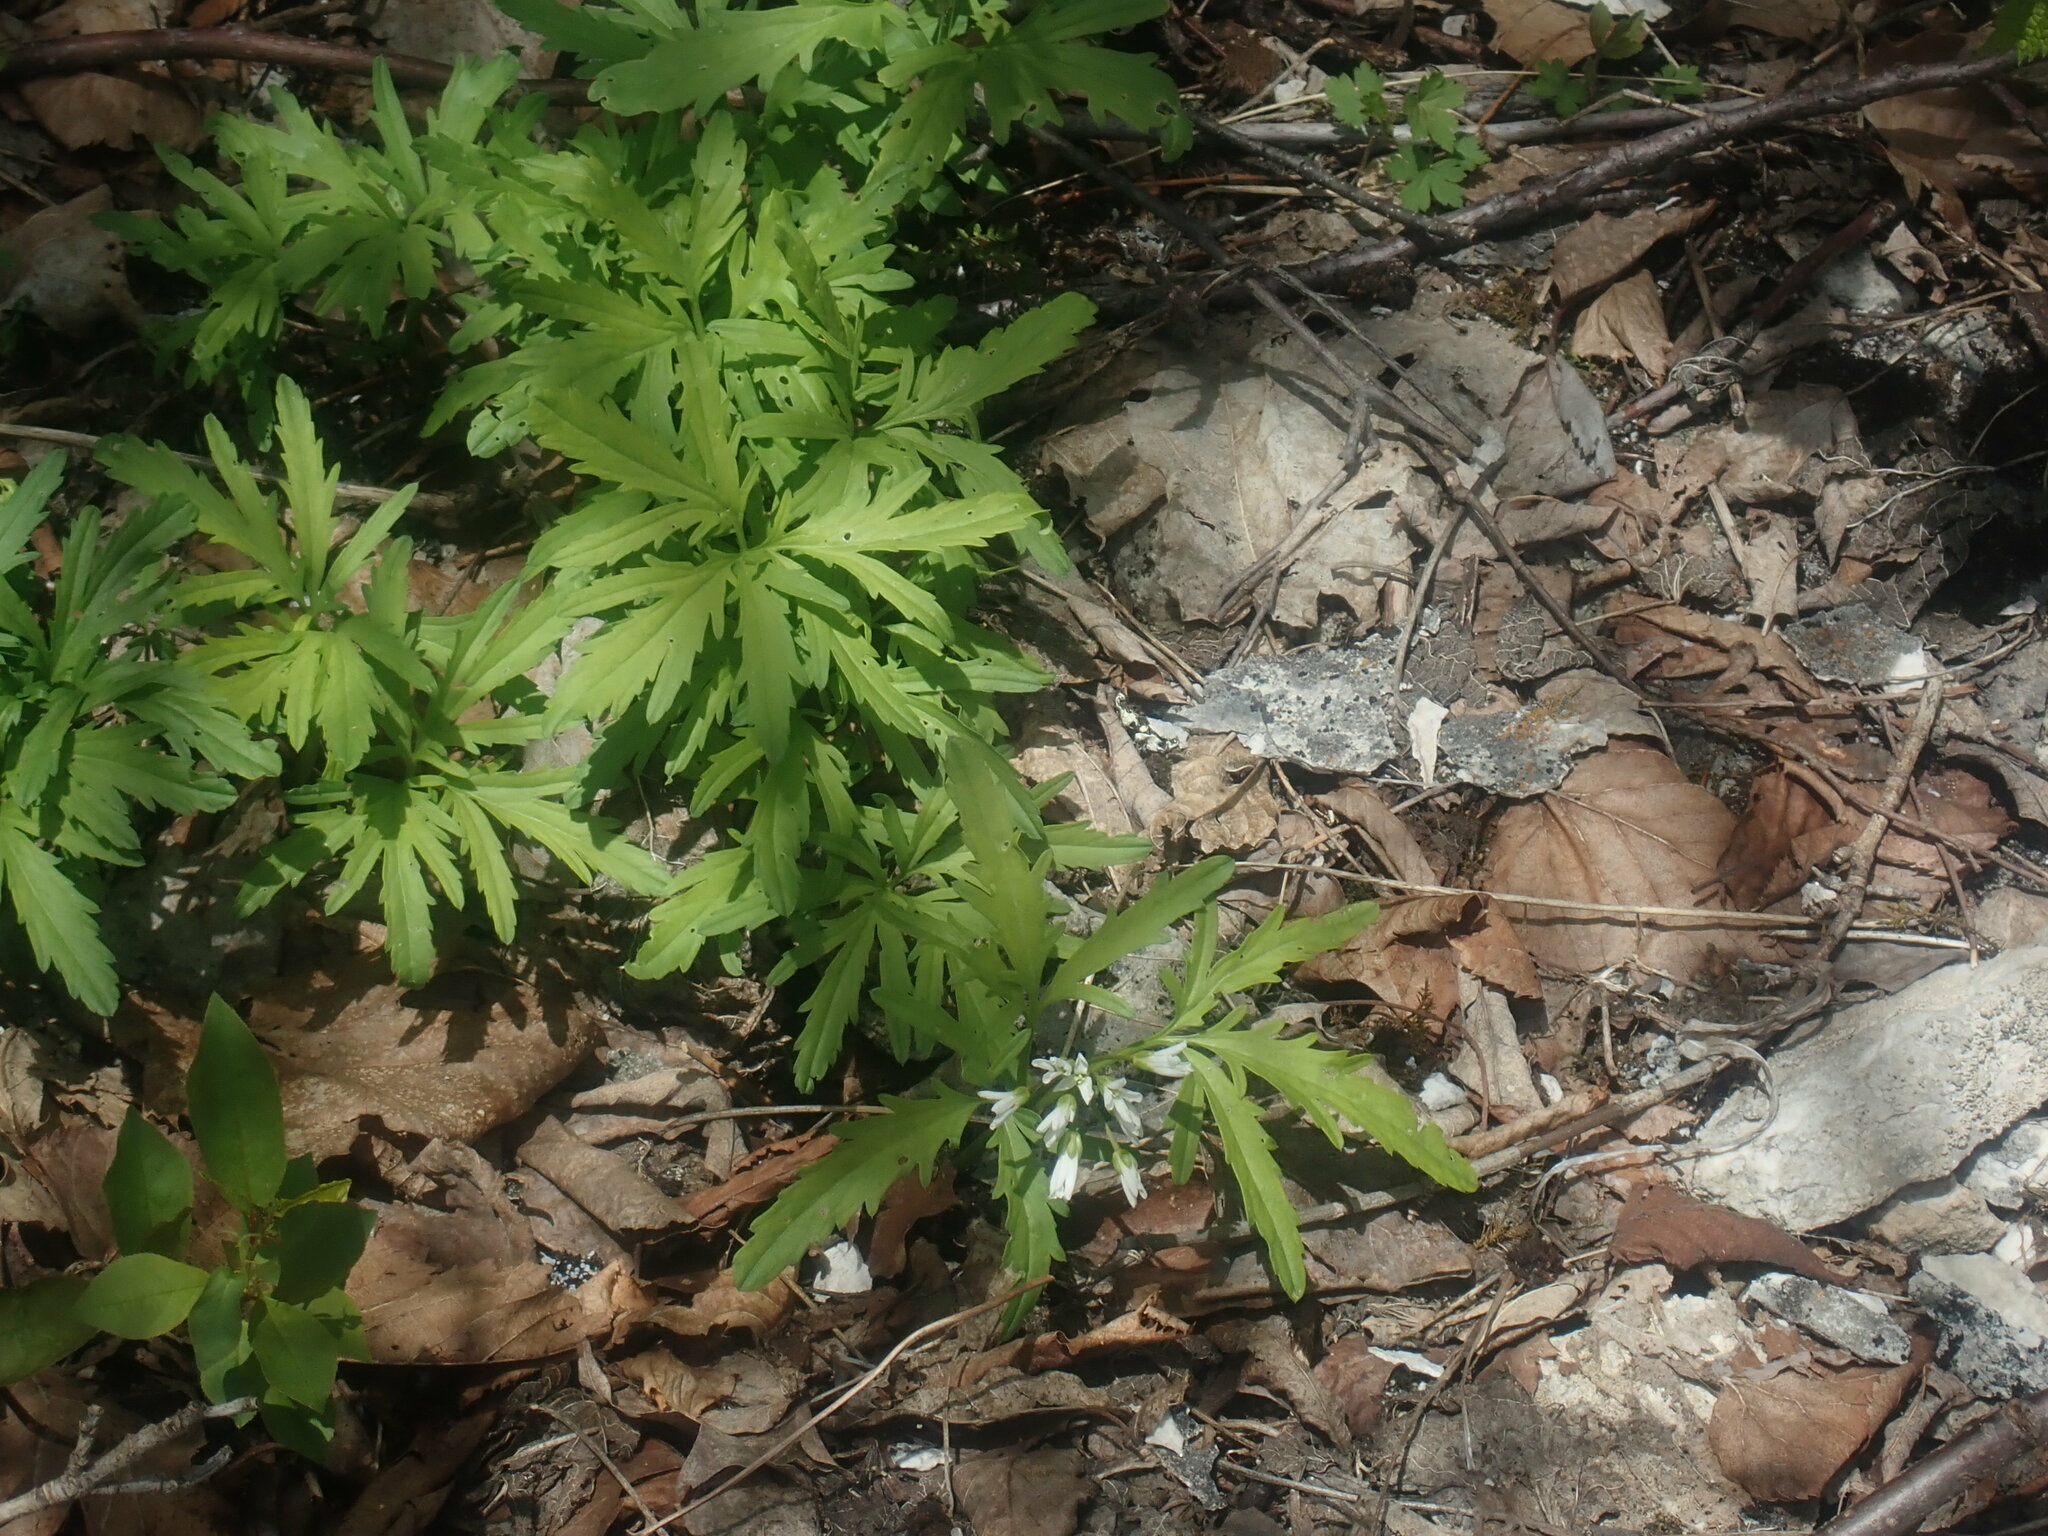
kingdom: Plantae
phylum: Tracheophyta
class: Magnoliopsida
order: Brassicales
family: Brassicaceae
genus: Cardamine
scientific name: Cardamine concatenata
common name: Cut-leaf toothcup
